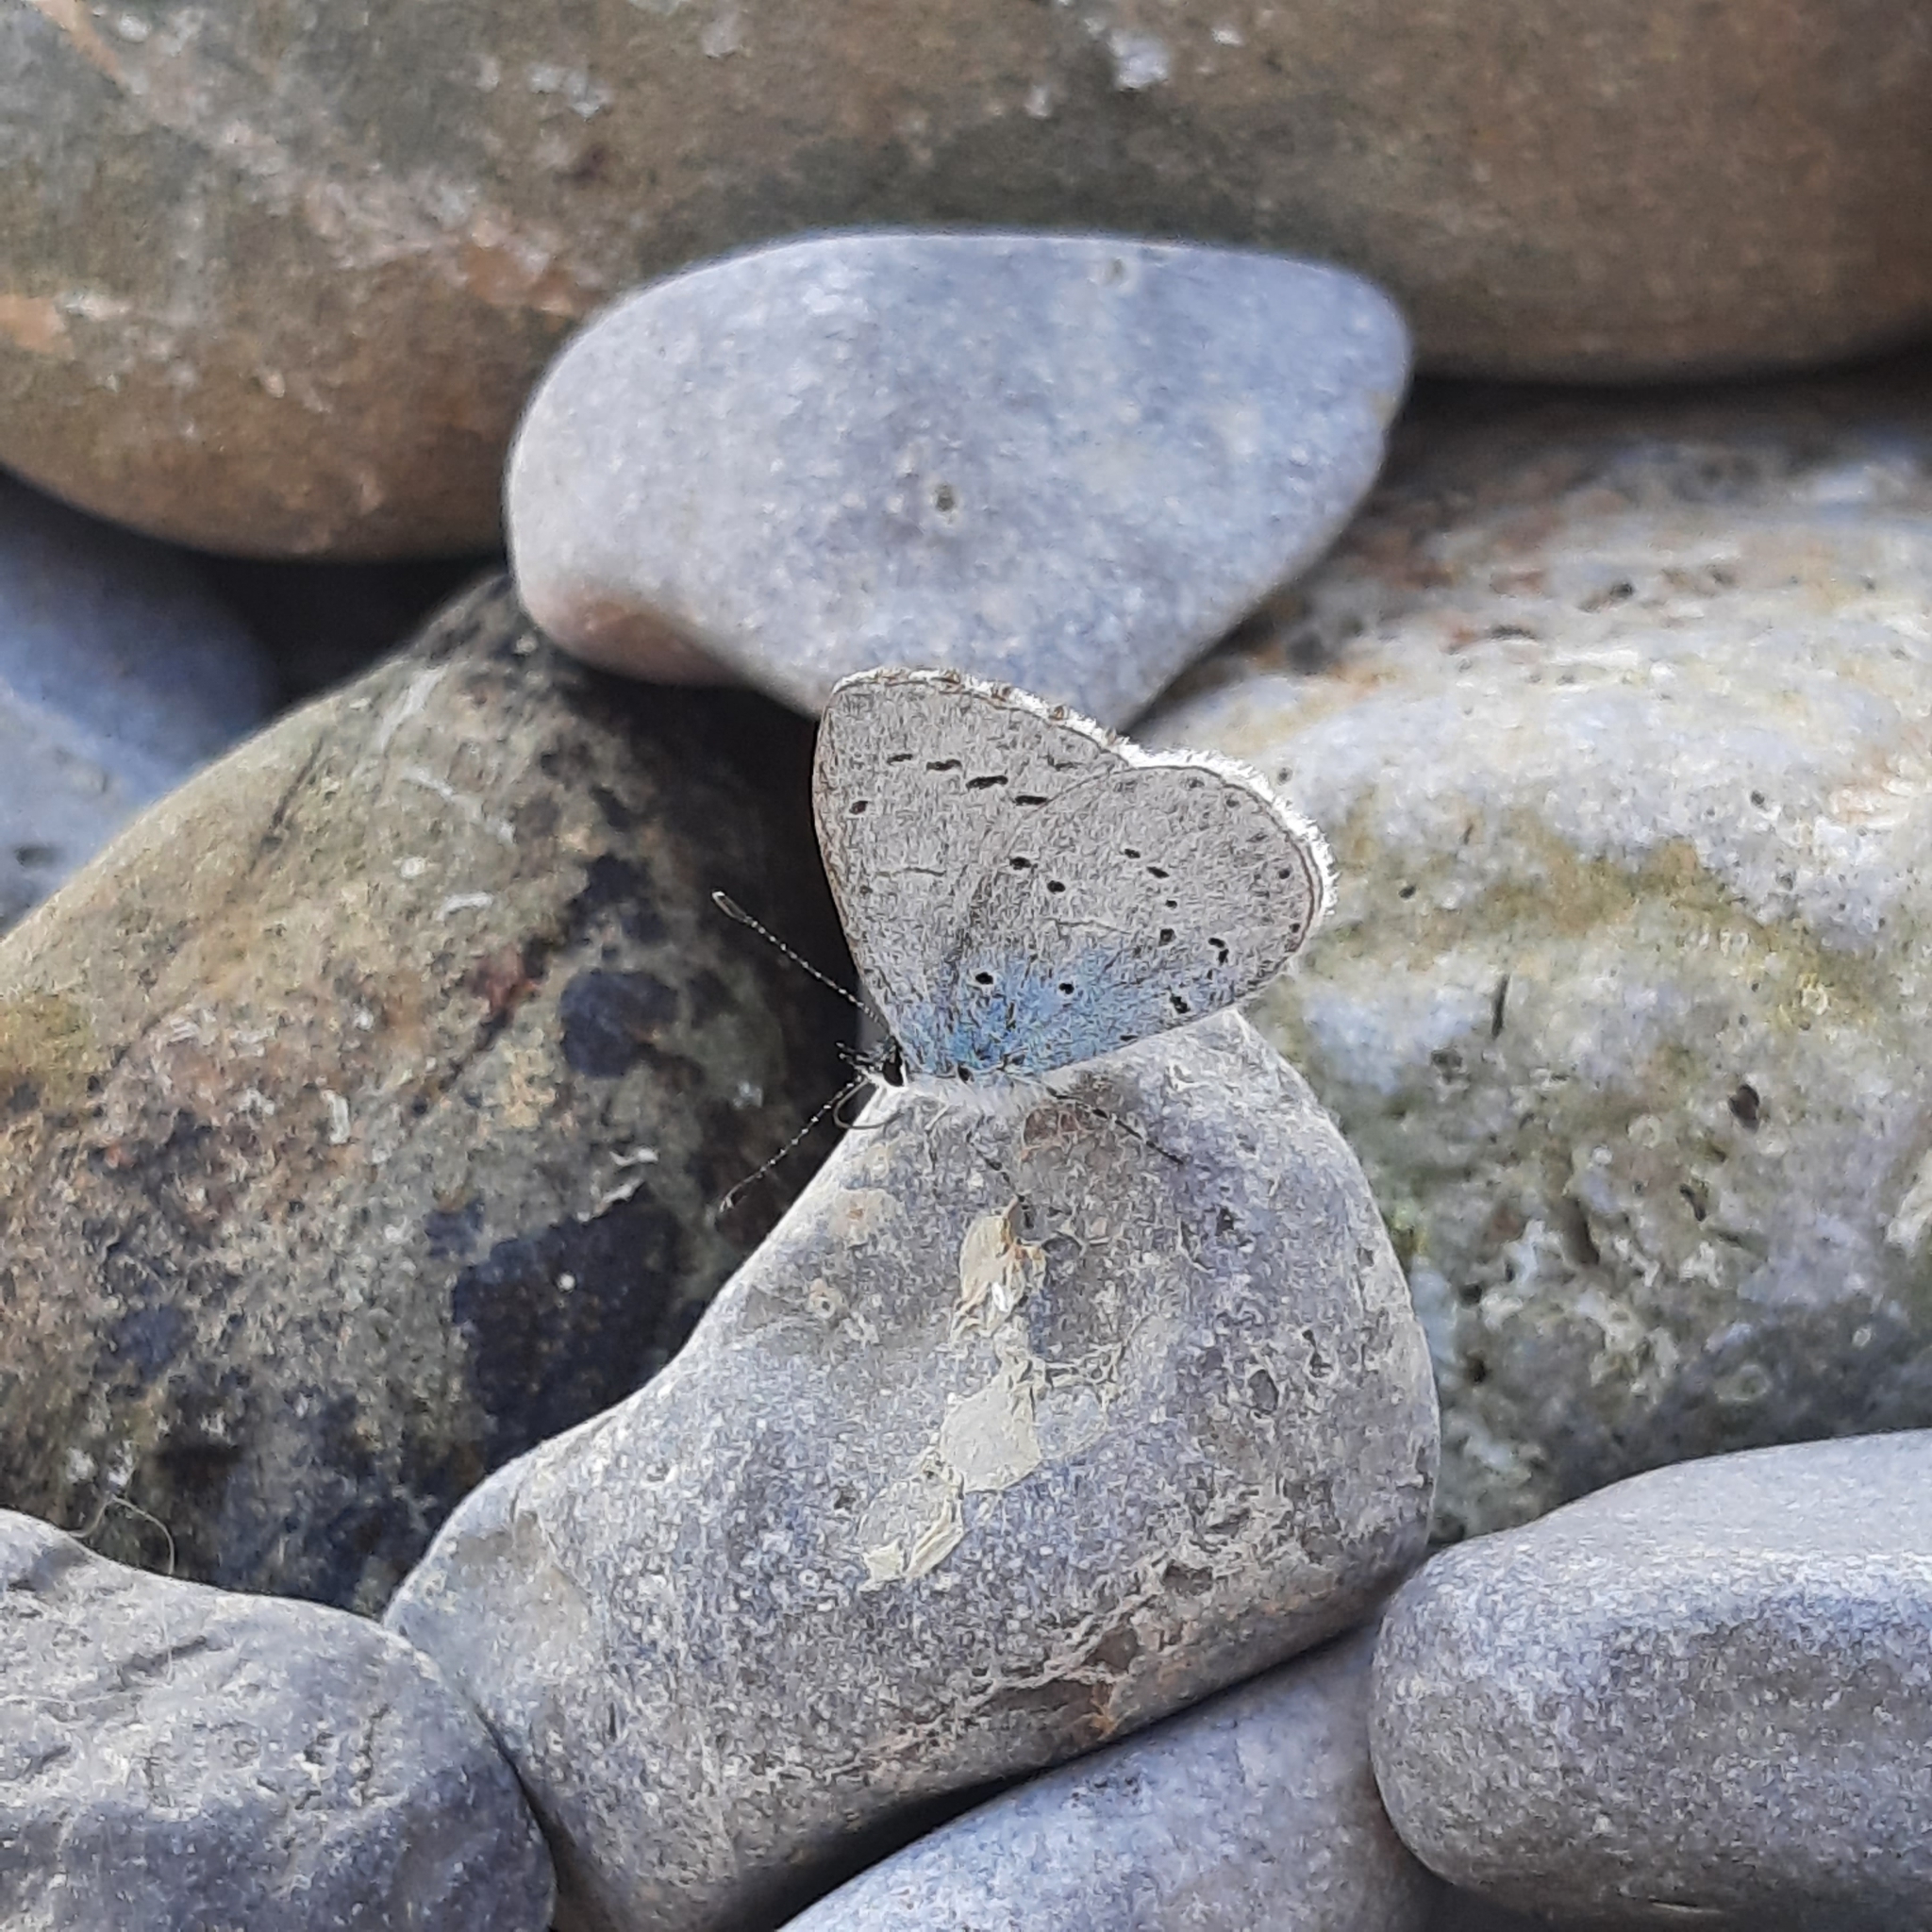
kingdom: Animalia
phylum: Arthropoda
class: Insecta
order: Lepidoptera
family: Lycaenidae
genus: Celastrina
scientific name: Celastrina argiolus
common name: Holly blue
